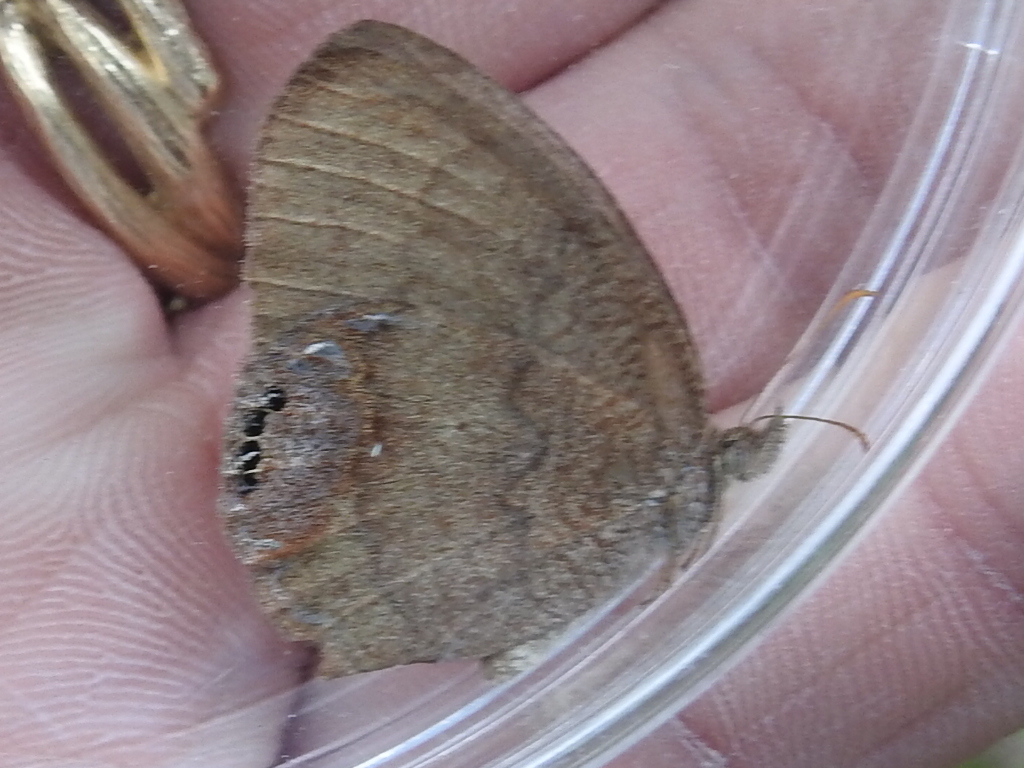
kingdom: Animalia
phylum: Arthropoda
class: Insecta
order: Lepidoptera
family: Nymphalidae
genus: Euptychia
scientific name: Euptychia cornelius
